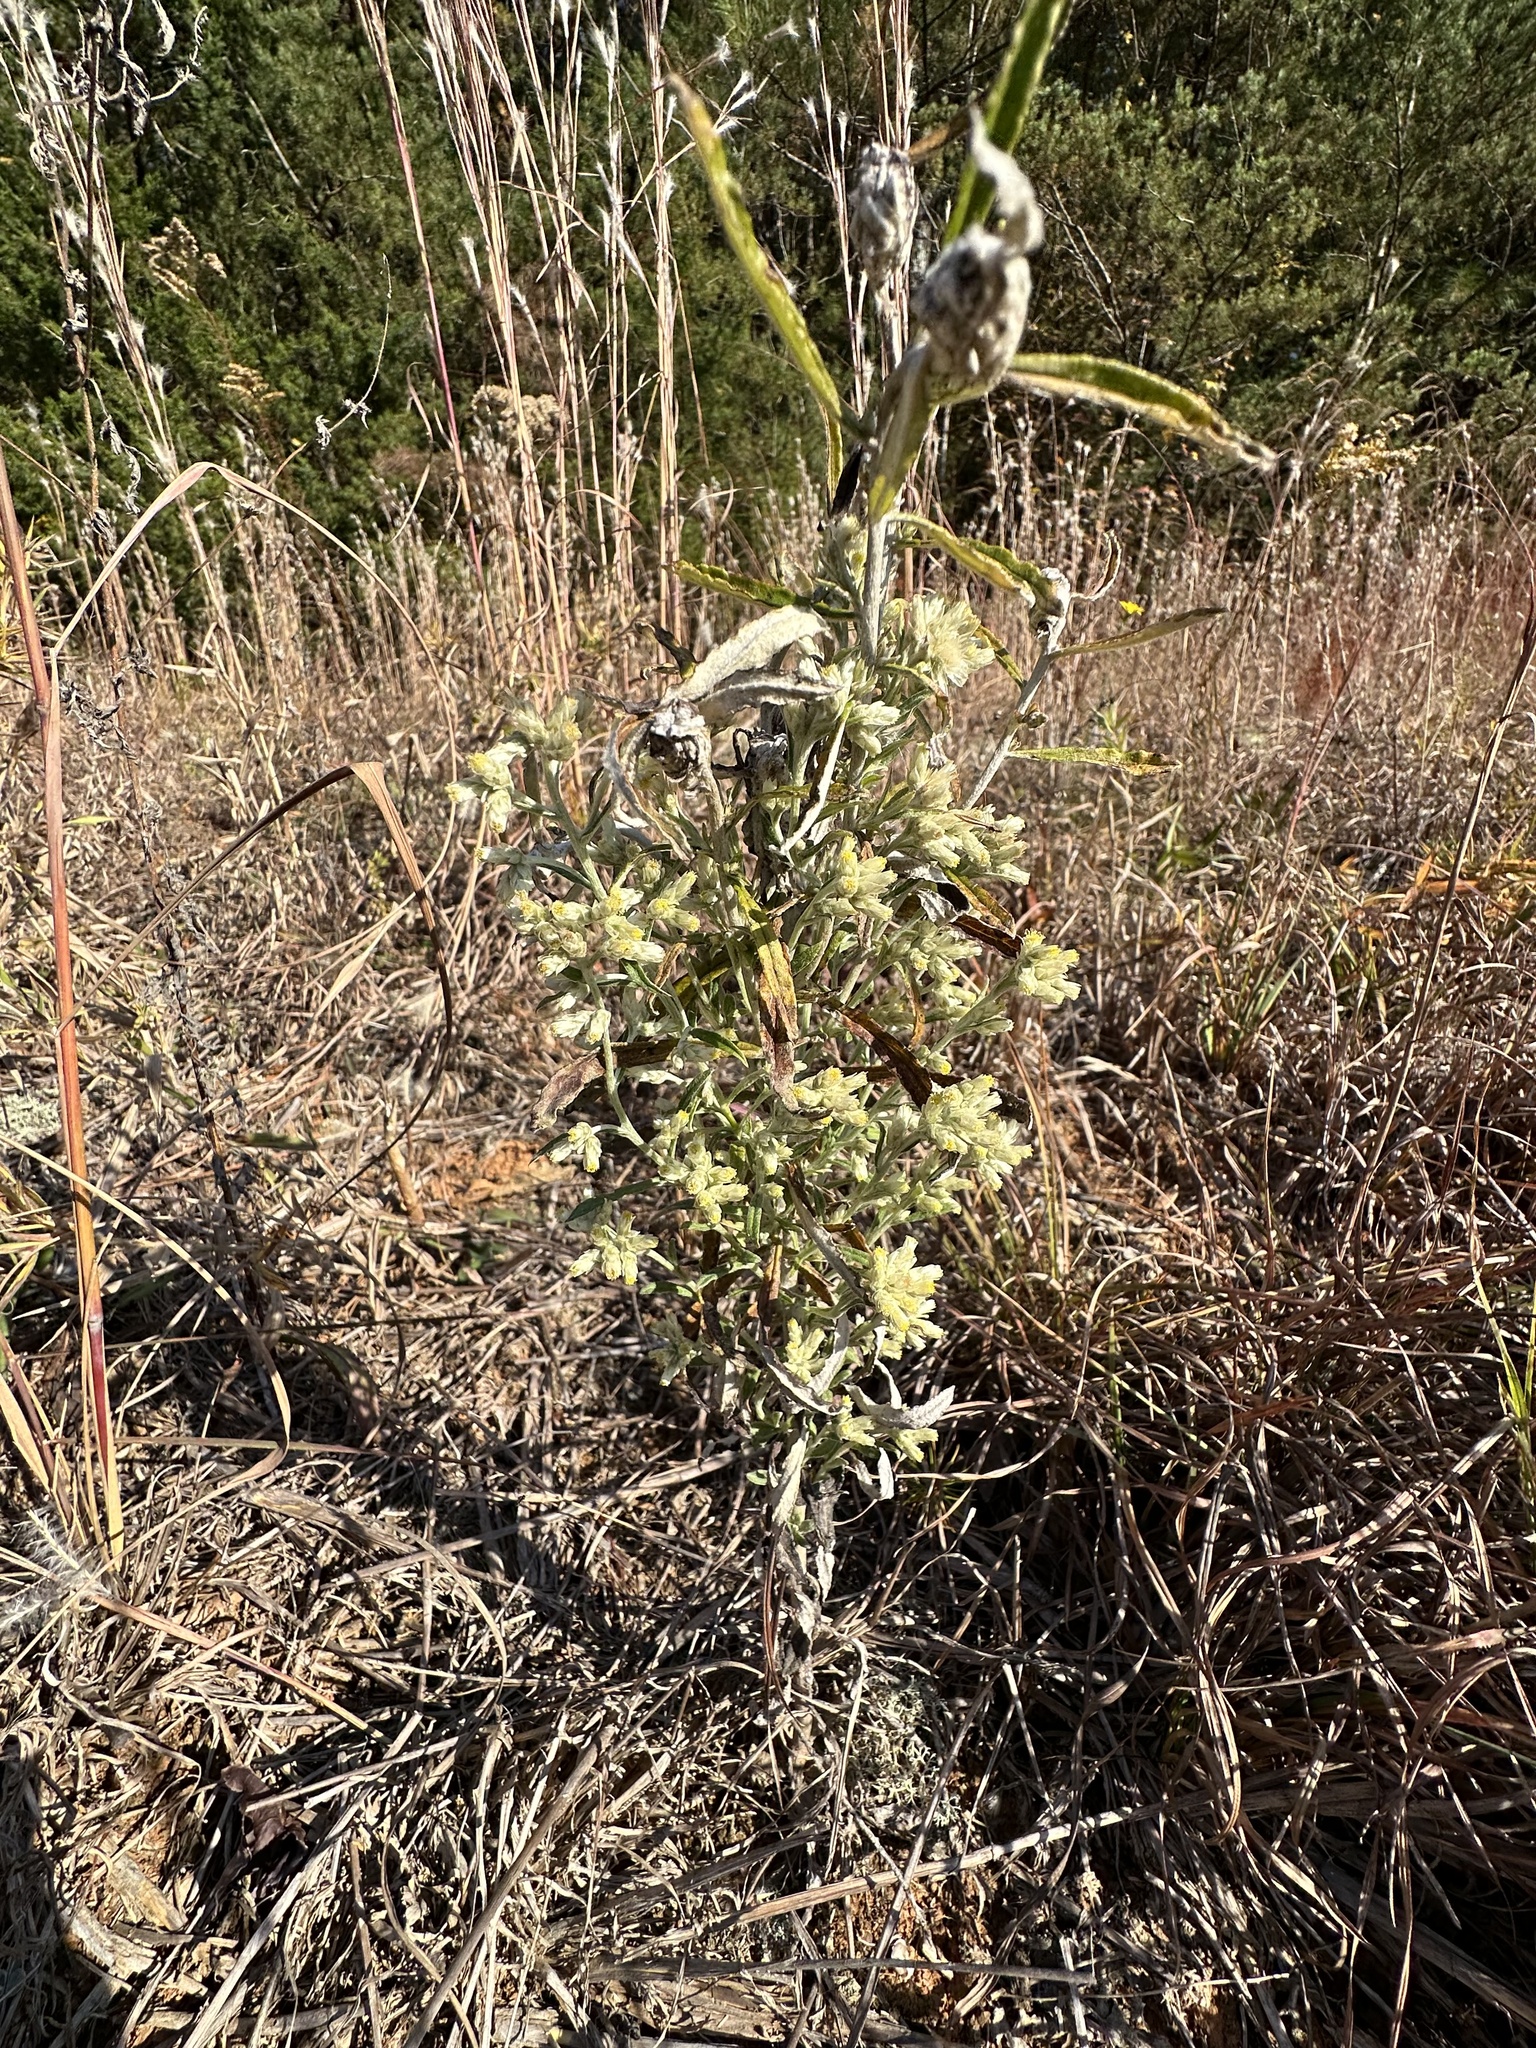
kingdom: Plantae
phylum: Tracheophyta
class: Magnoliopsida
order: Asterales
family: Asteraceae
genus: Pseudognaphalium
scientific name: Pseudognaphalium obtusifolium
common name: Eastern rabbit-tobacco
